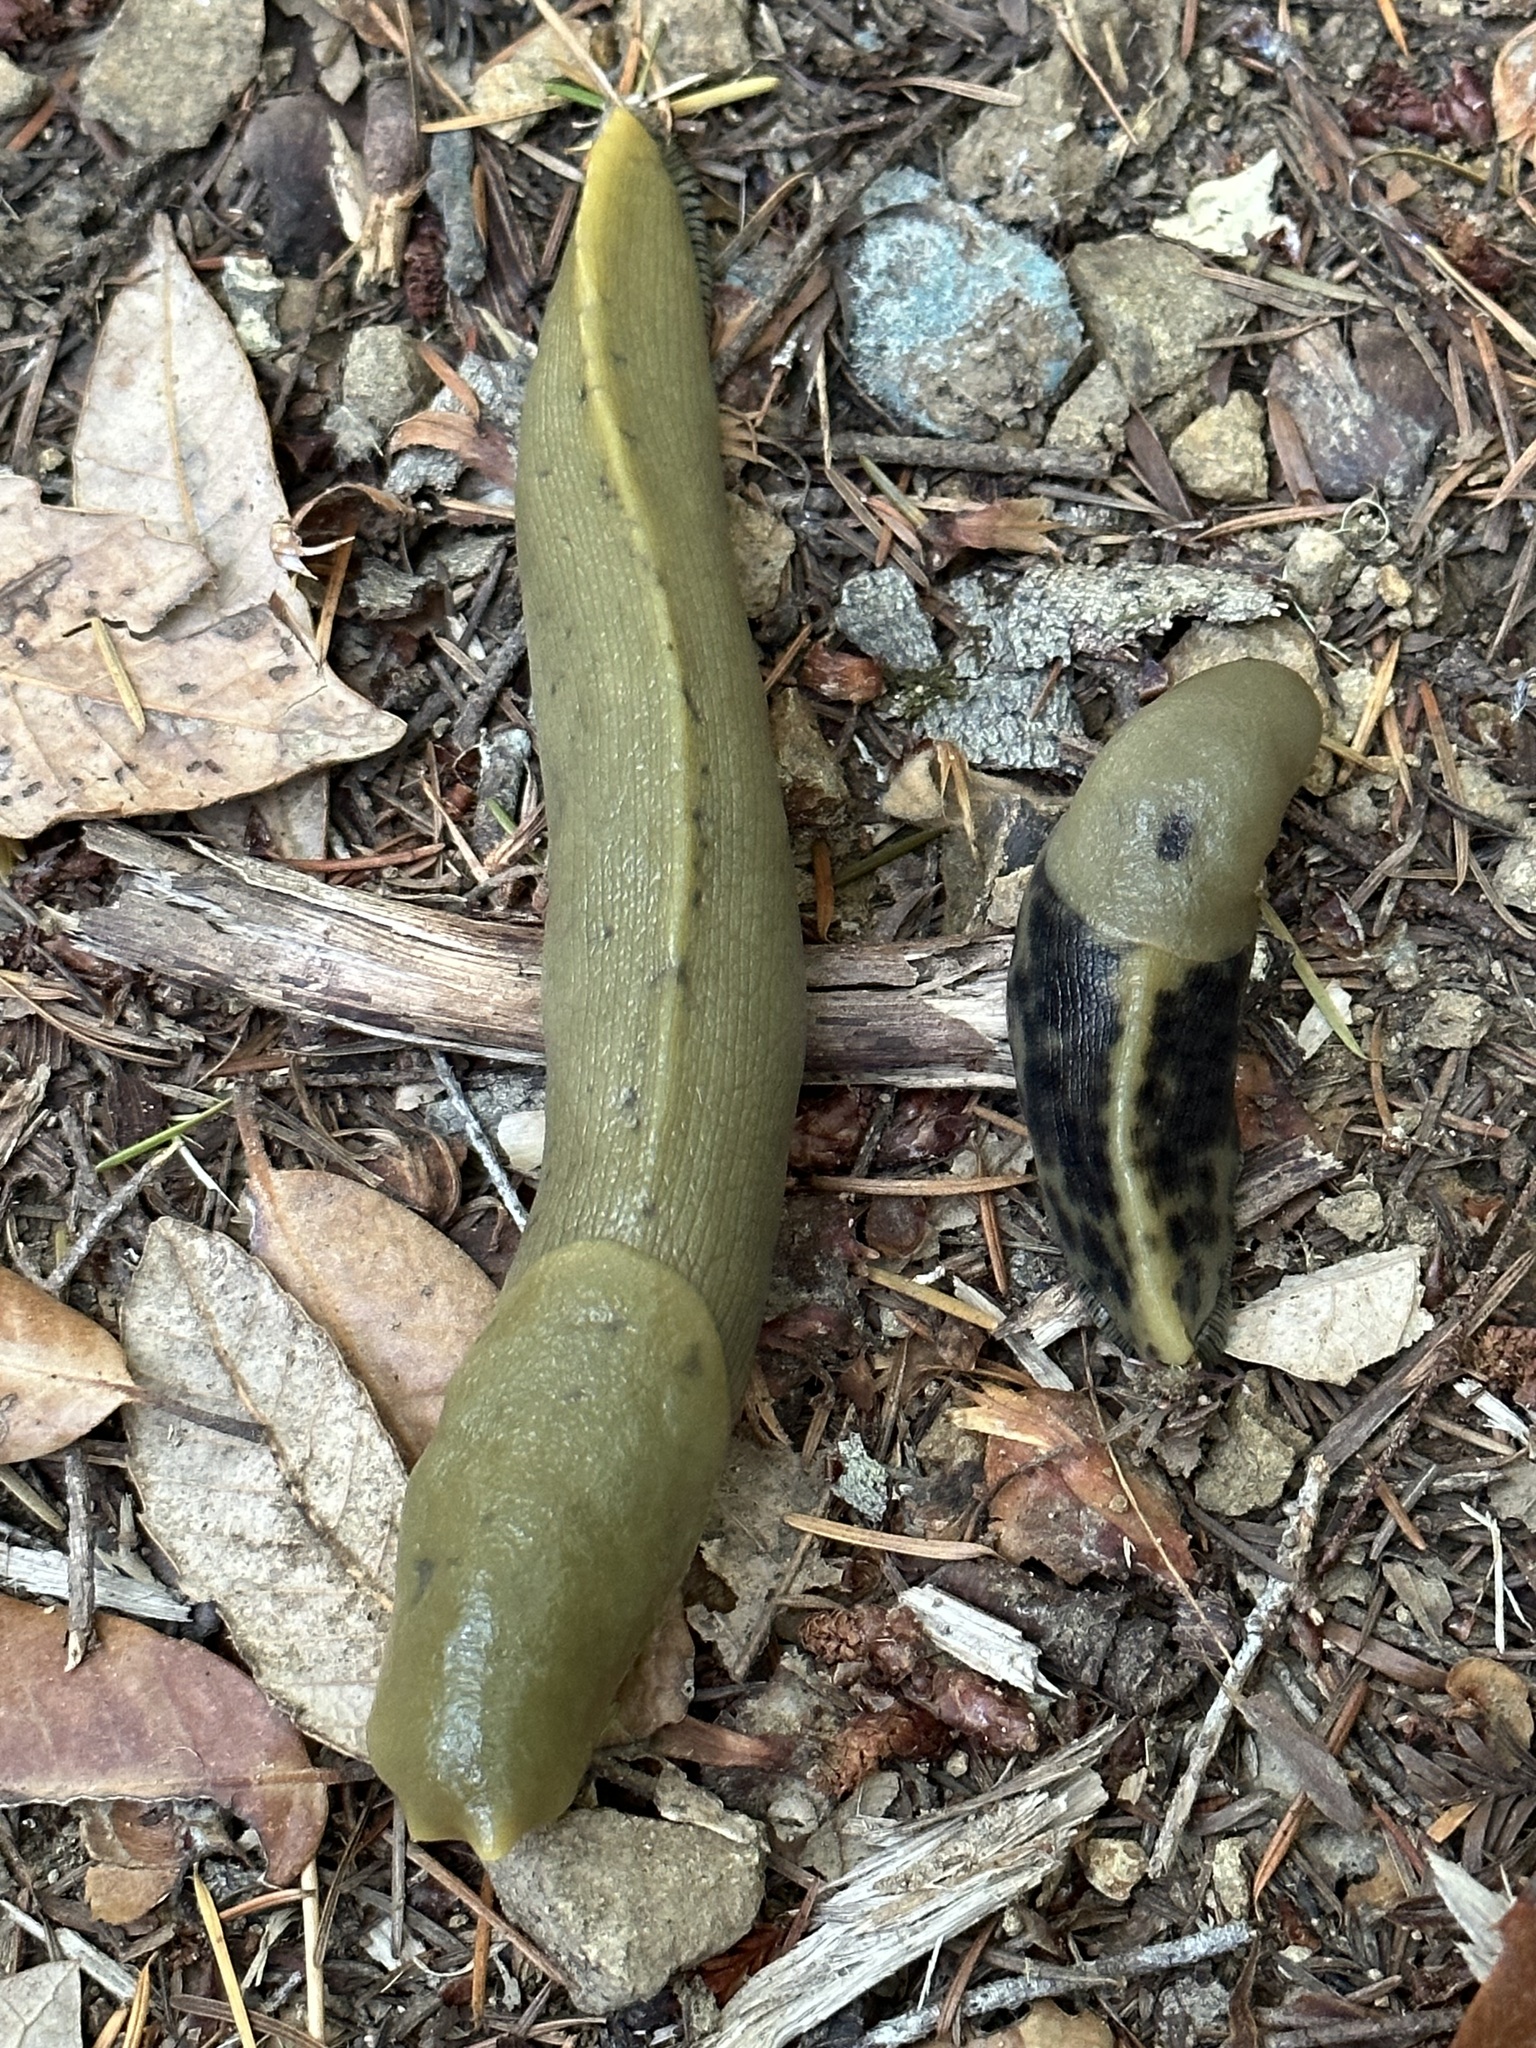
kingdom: Animalia
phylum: Mollusca
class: Gastropoda
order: Stylommatophora
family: Ariolimacidae
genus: Ariolimax
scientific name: Ariolimax buttoni
